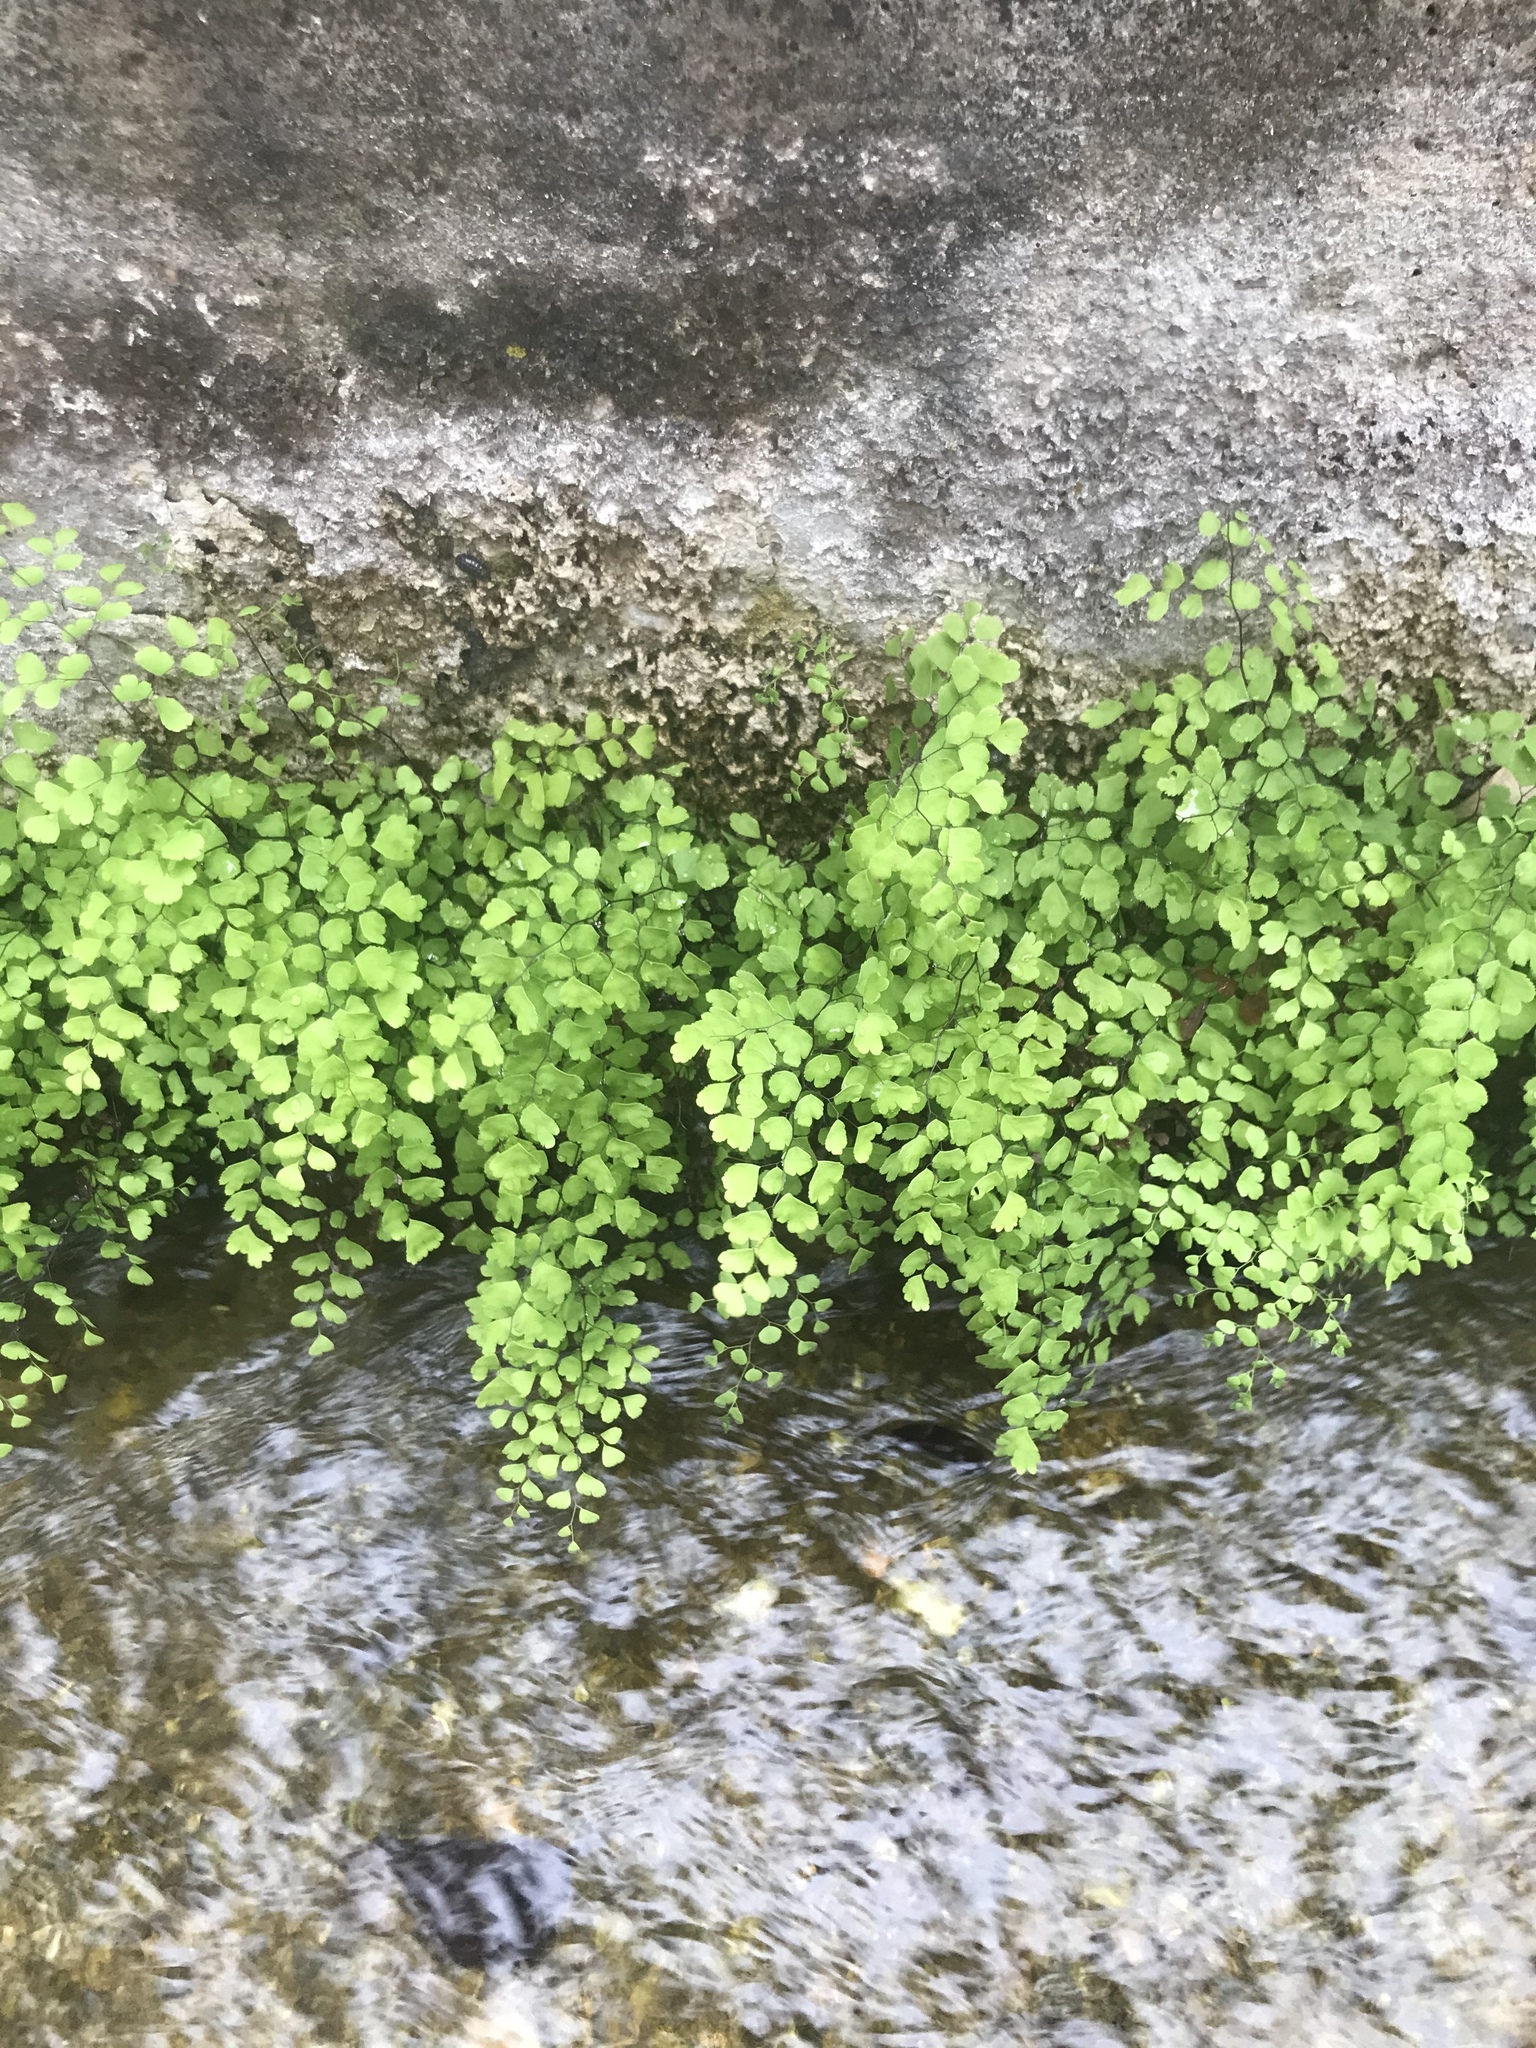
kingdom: Plantae
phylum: Tracheophyta
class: Polypodiopsida
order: Polypodiales
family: Pteridaceae
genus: Adiantum
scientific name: Adiantum capillus-veneris
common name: Maidenhair fern
